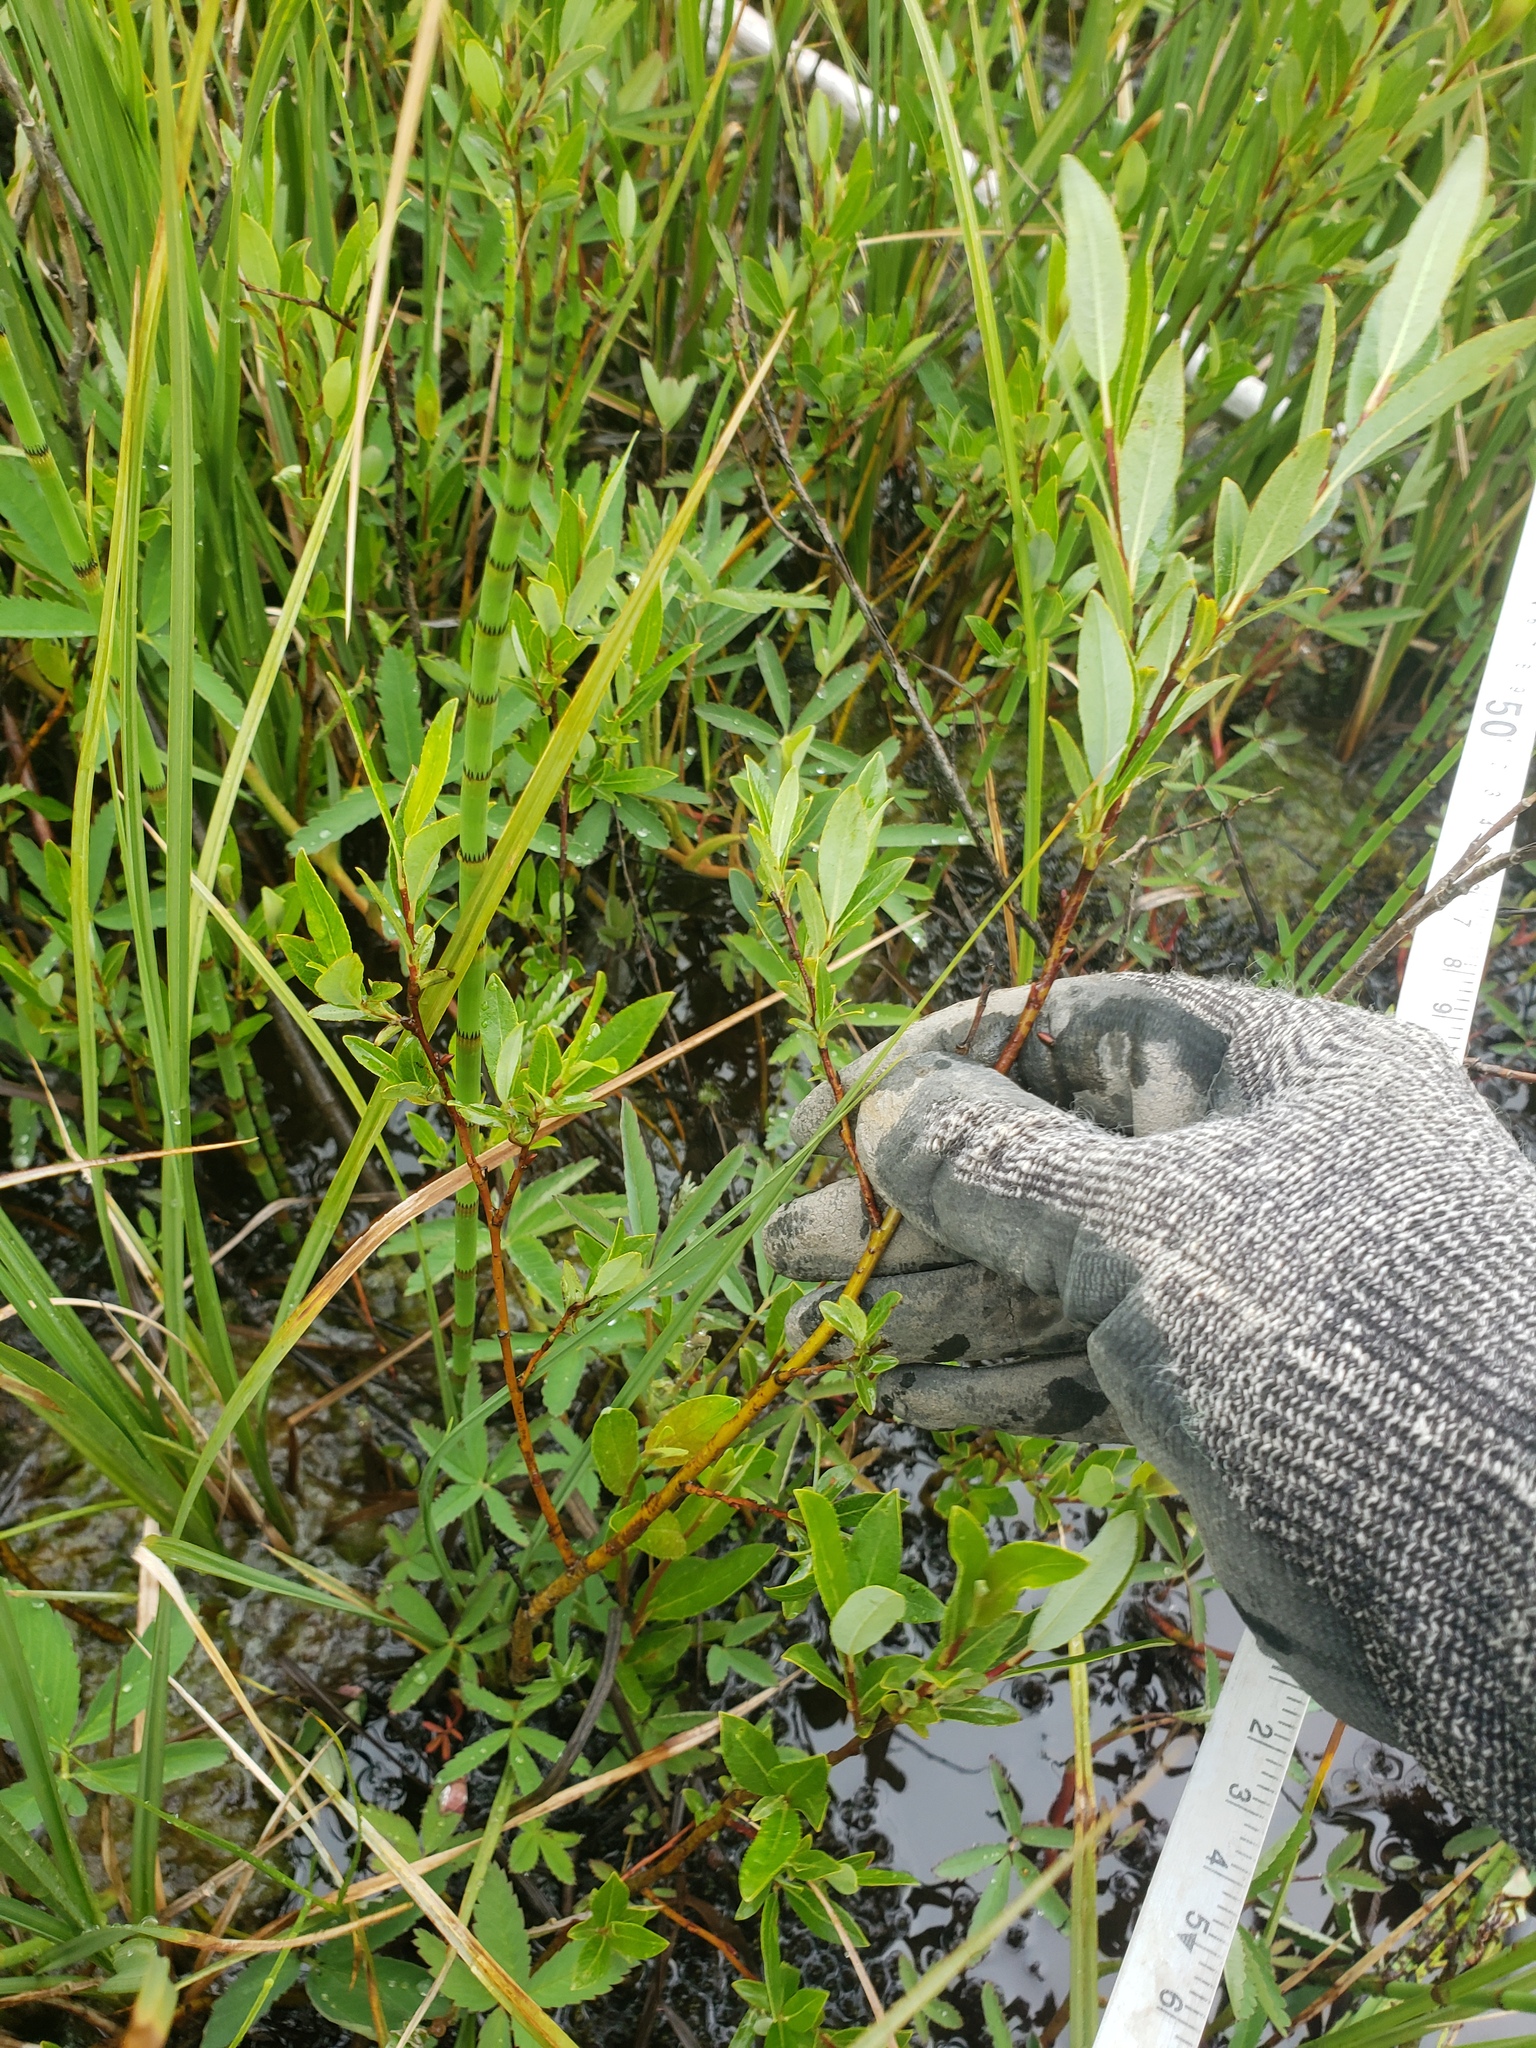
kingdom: Plantae
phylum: Tracheophyta
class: Magnoliopsida
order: Malpighiales
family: Salicaceae
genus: Salix
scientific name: Salix planifolia
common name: Mountain willow
